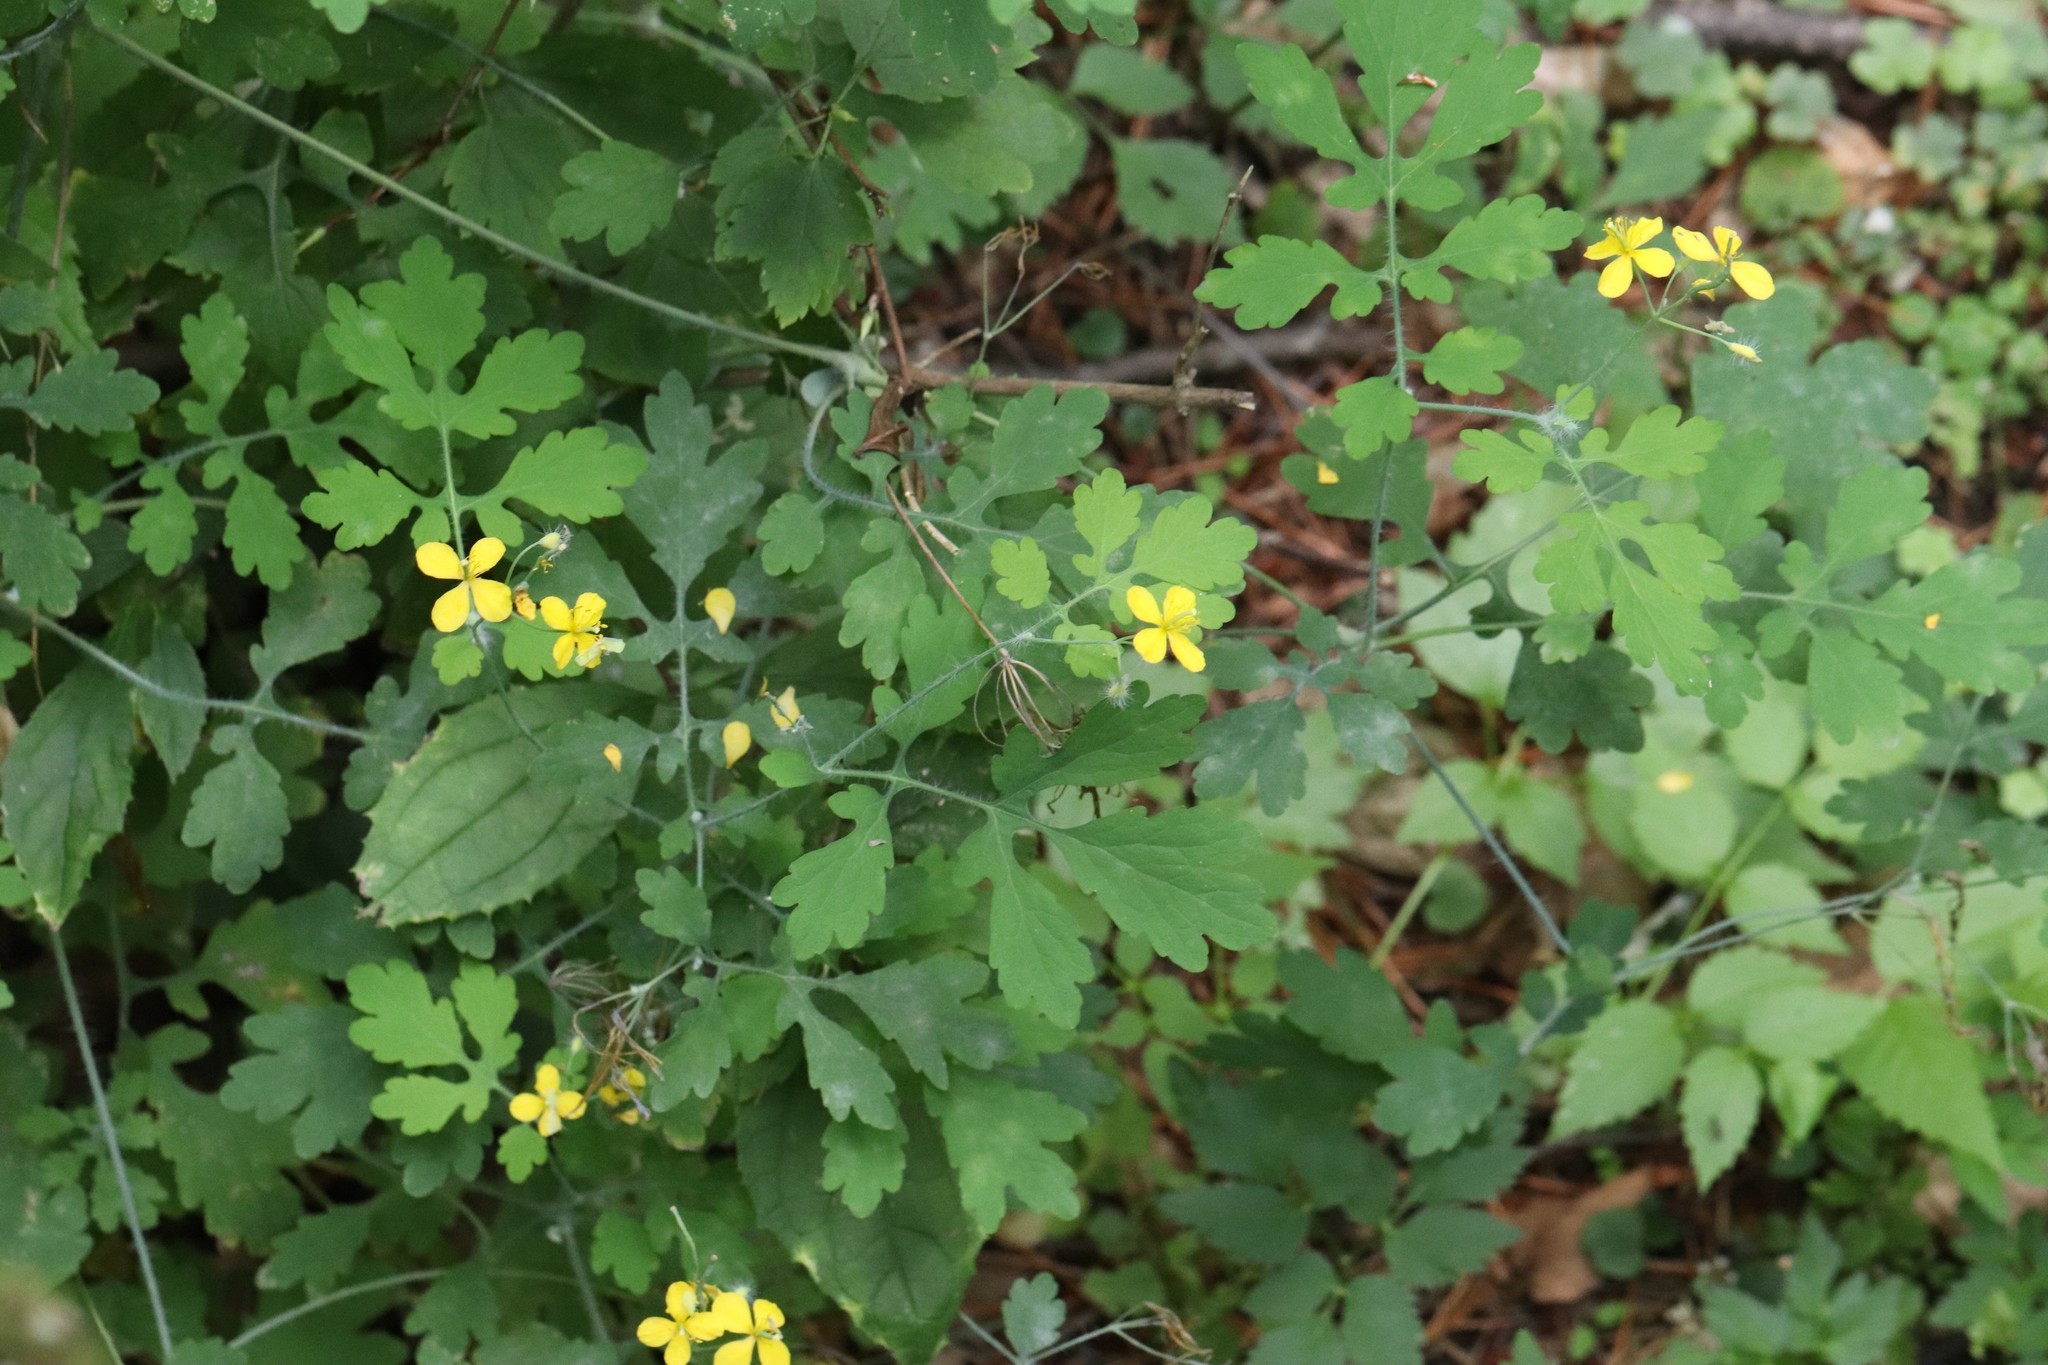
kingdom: Plantae
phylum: Tracheophyta
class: Magnoliopsida
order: Ranunculales
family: Papaveraceae
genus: Chelidonium
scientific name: Chelidonium majus
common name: Greater celandine
